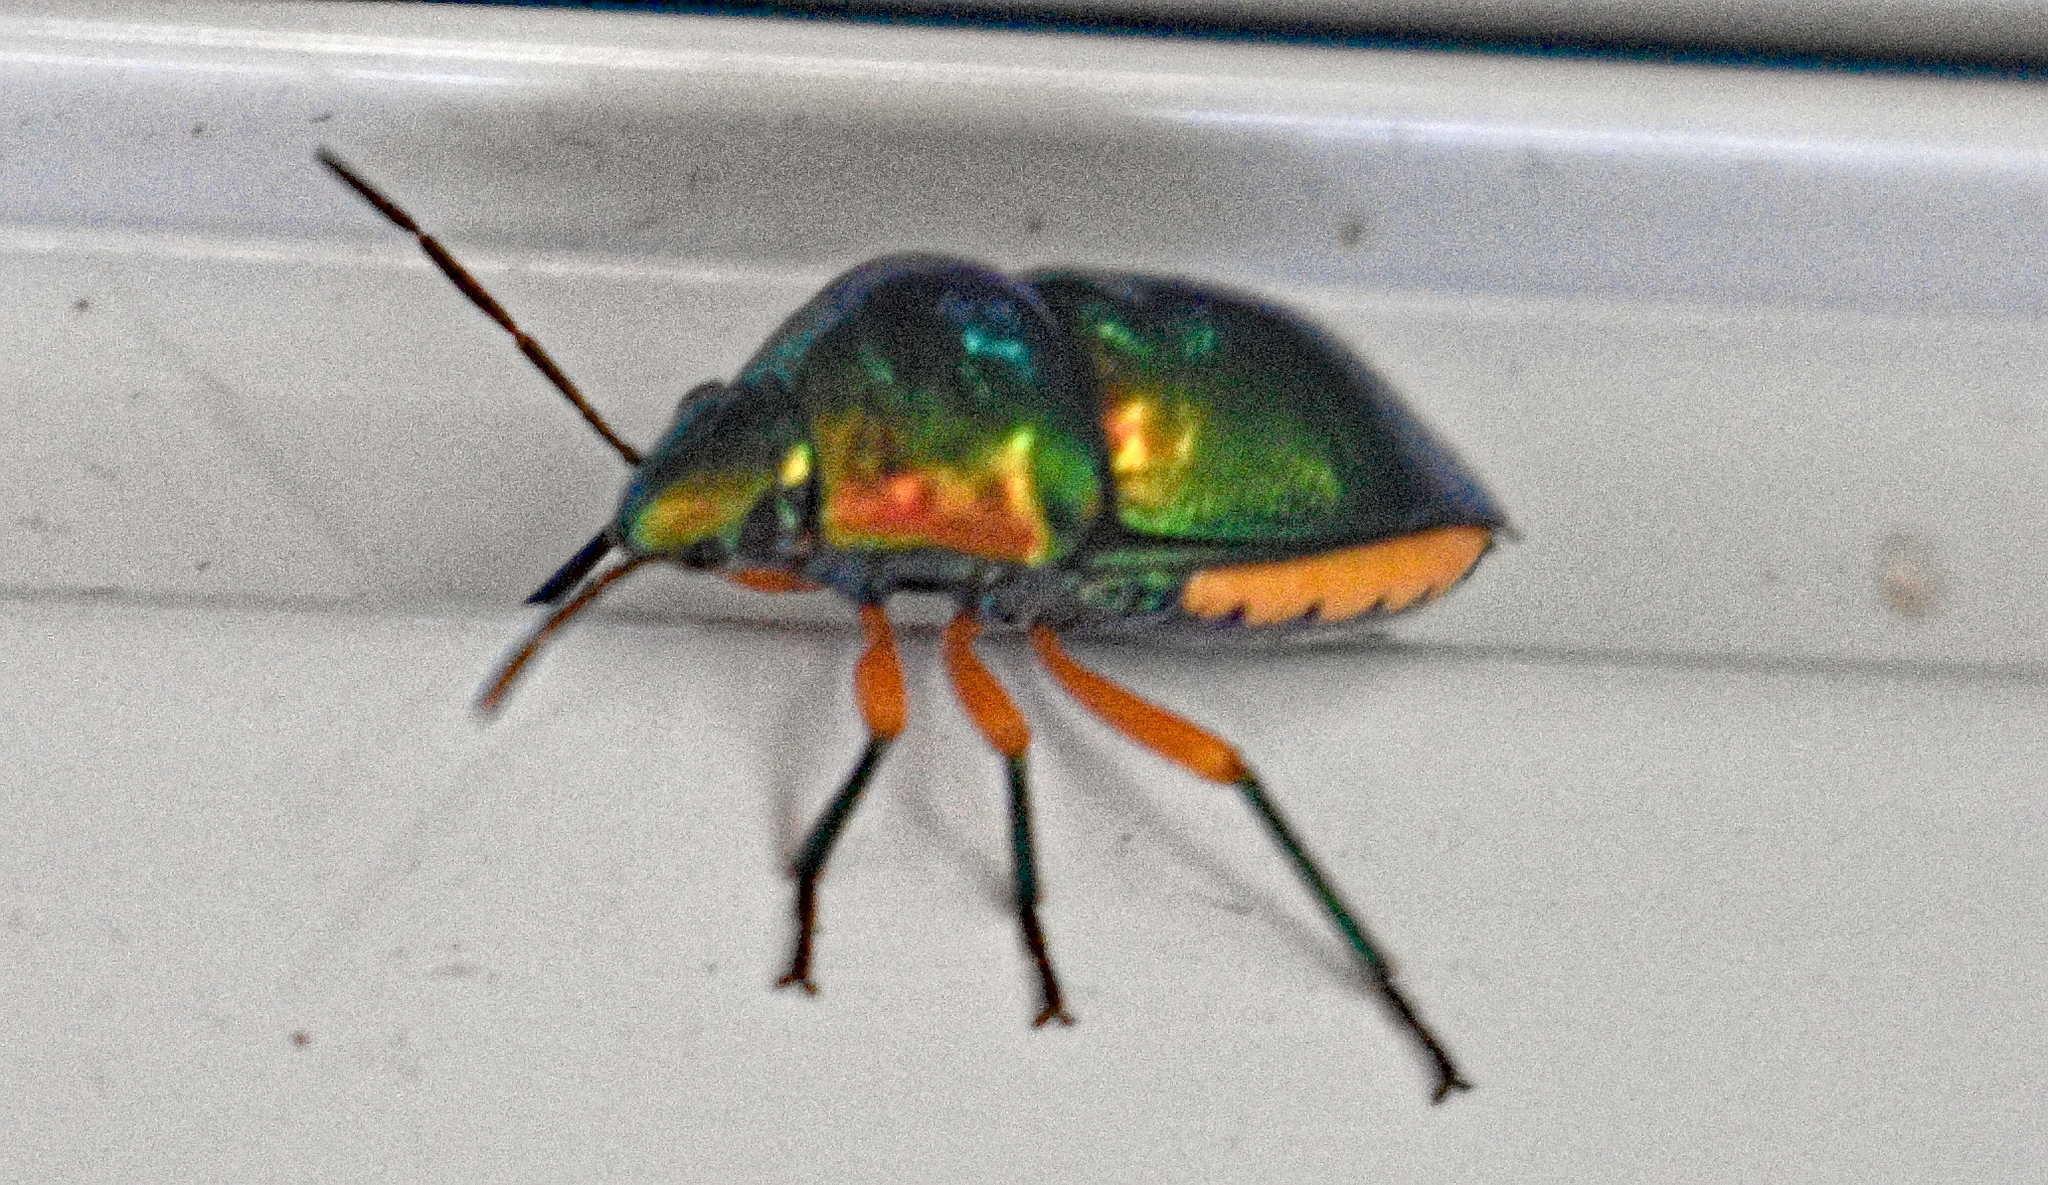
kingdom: Animalia
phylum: Arthropoda
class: Insecta
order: Hemiptera
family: Scutelleridae
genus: Lampromicra
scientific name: Lampromicra senator
